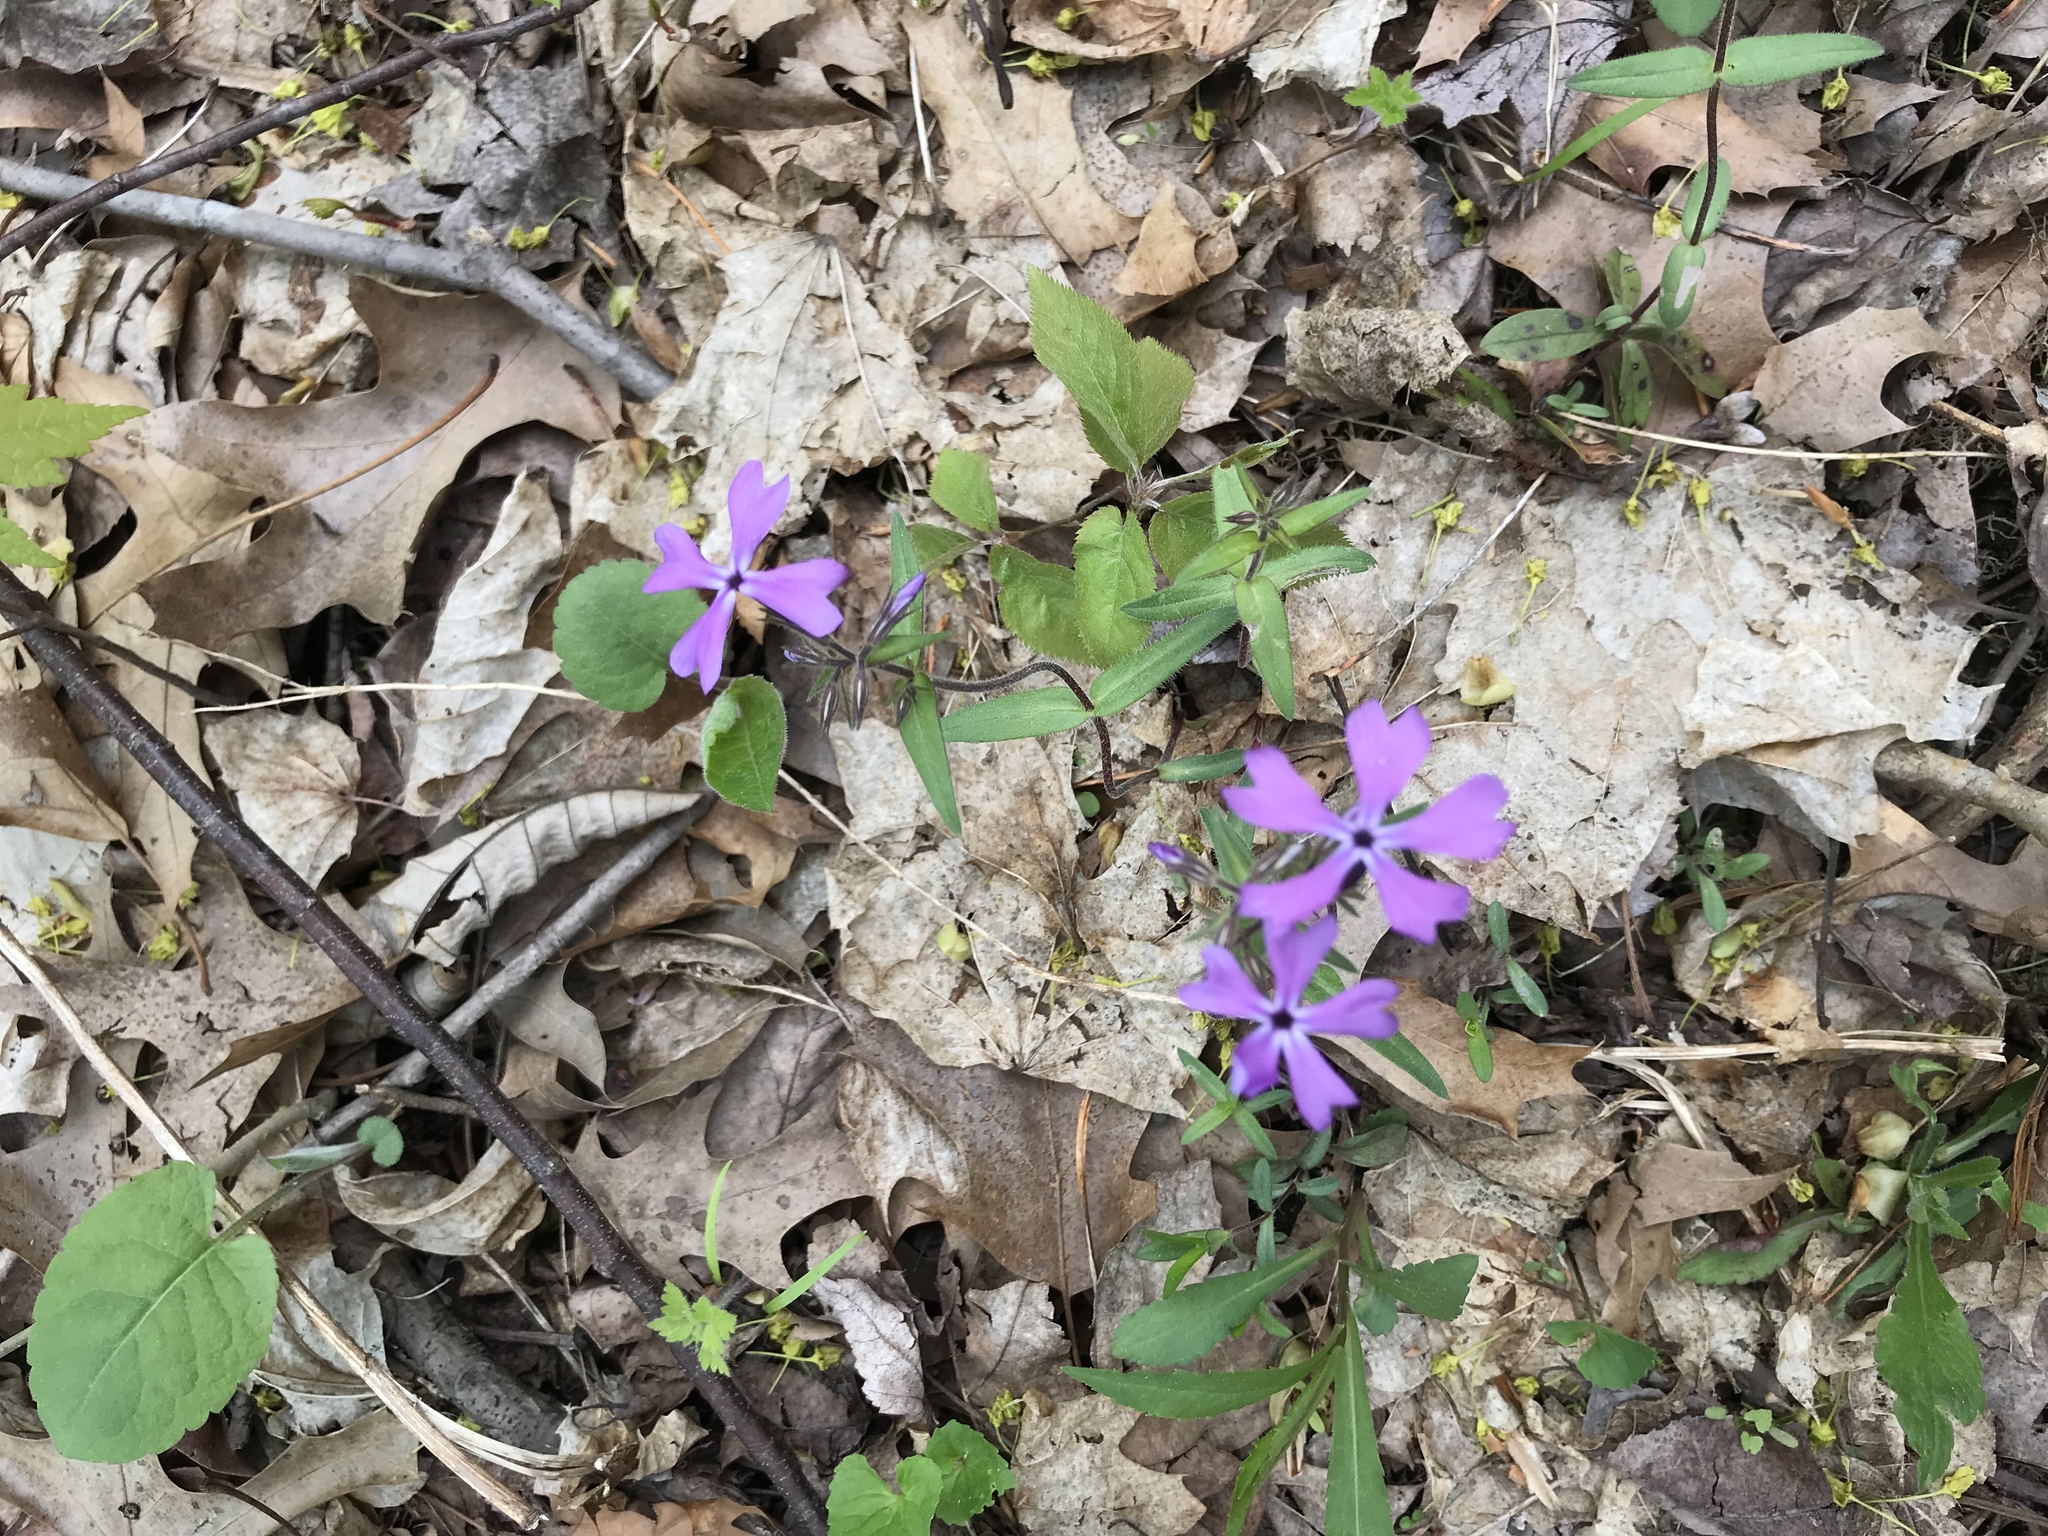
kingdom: Plantae
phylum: Tracheophyta
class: Magnoliopsida
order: Ericales
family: Polemoniaceae
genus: Phlox
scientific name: Phlox divaricata
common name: Blue phlox
